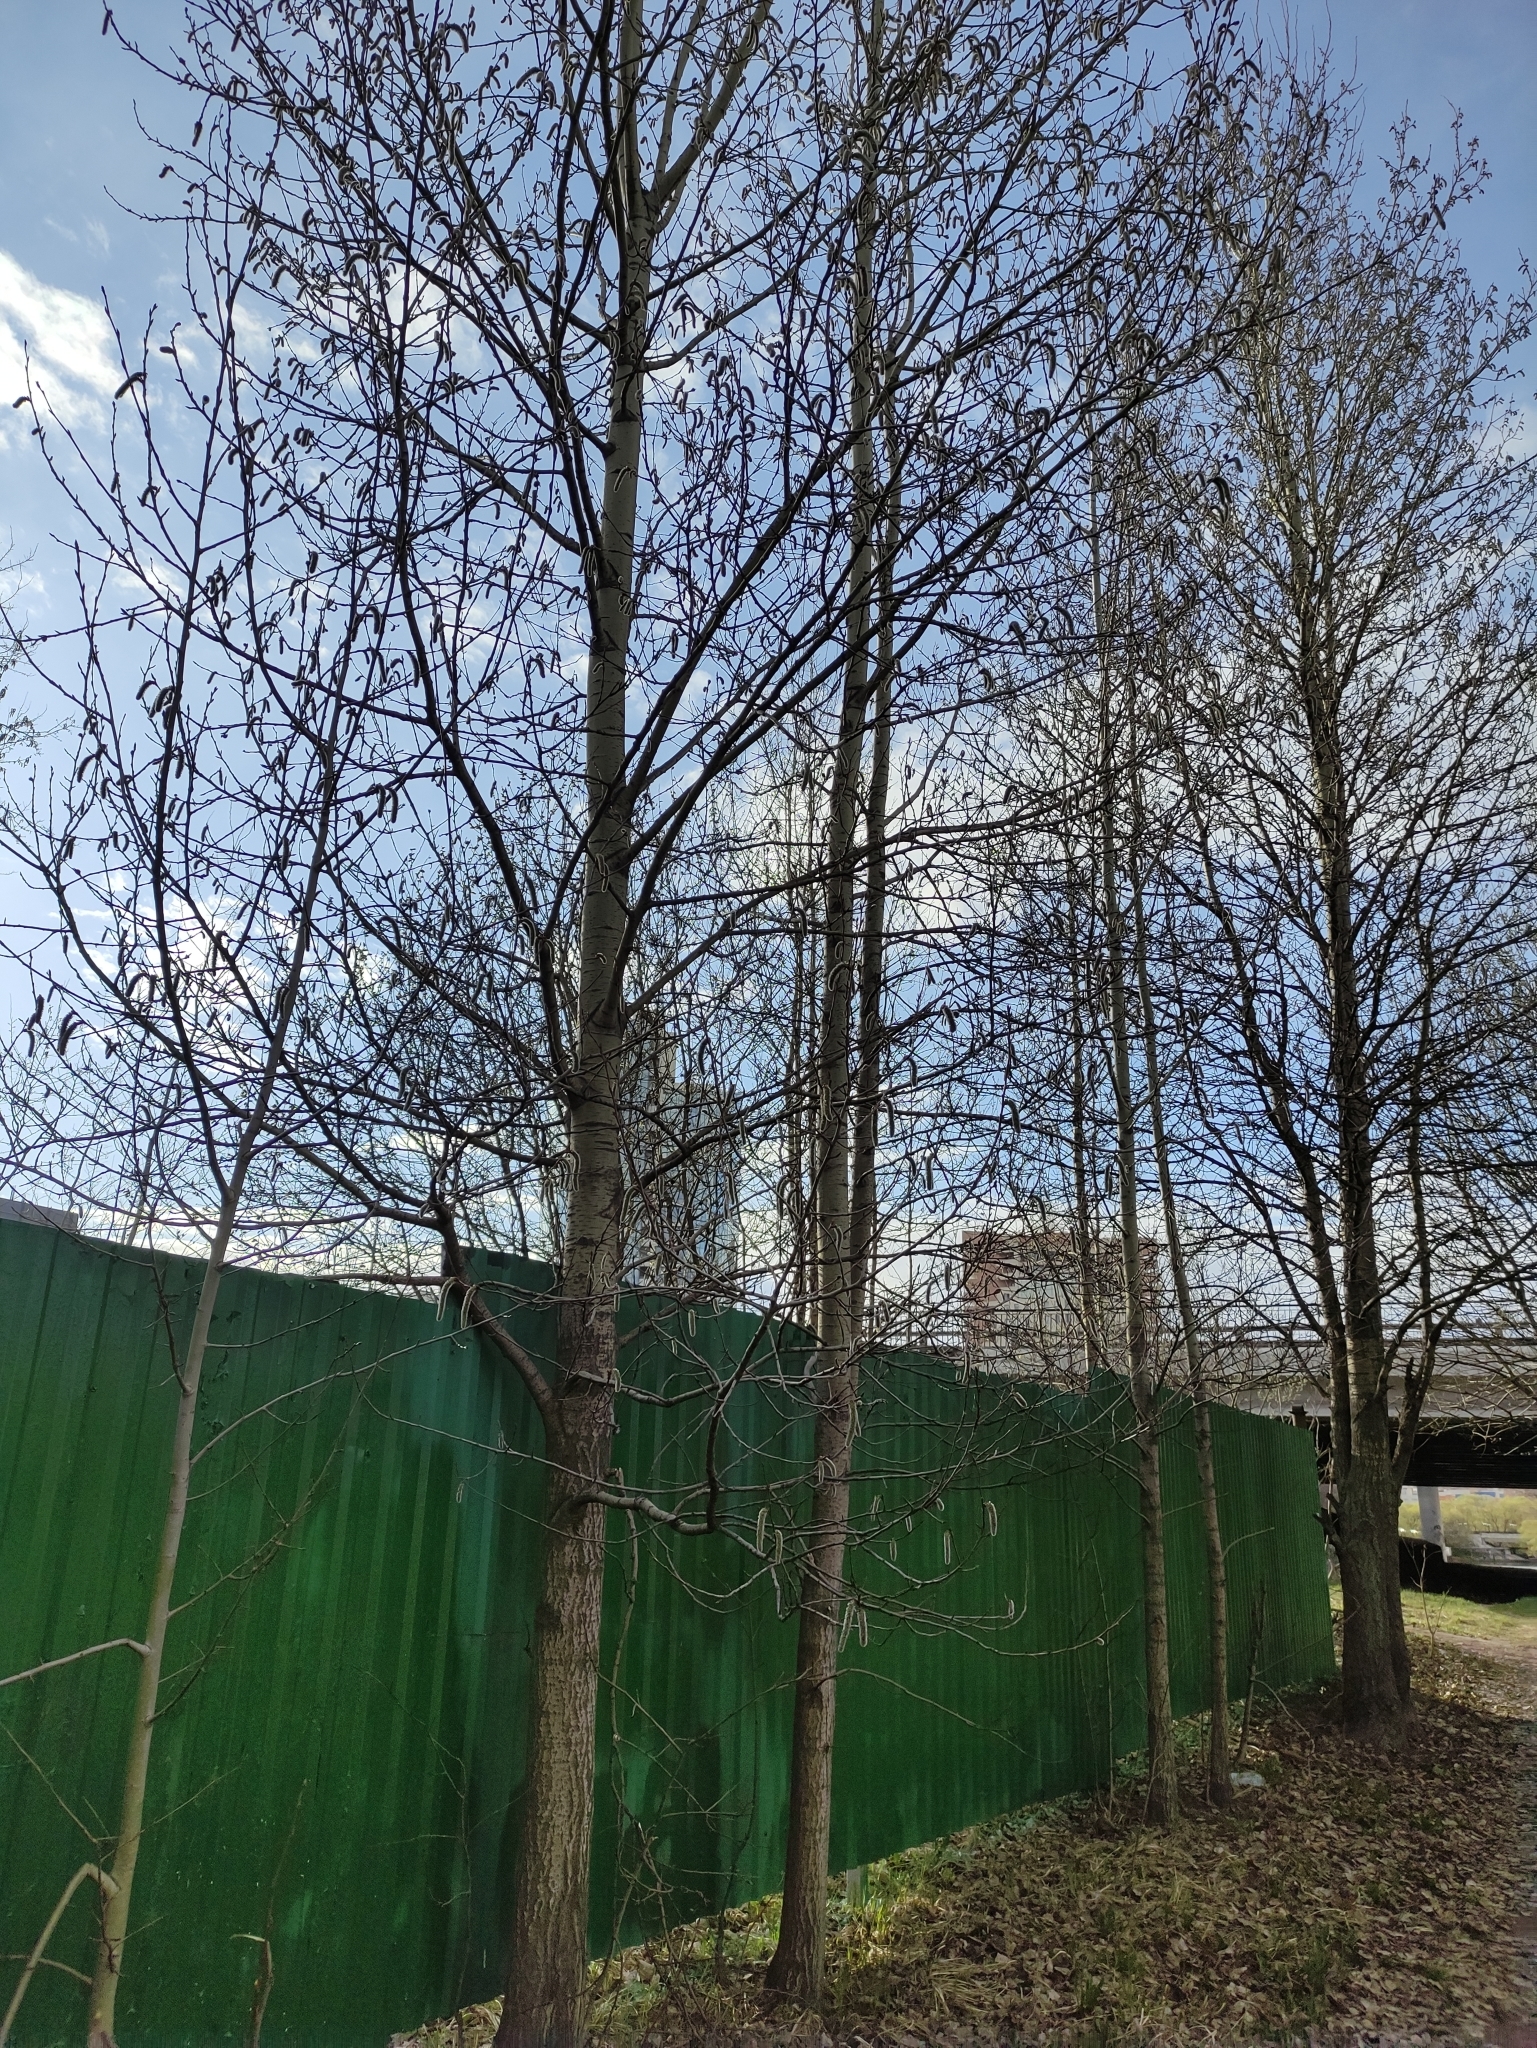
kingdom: Plantae
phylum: Tracheophyta
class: Magnoliopsida
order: Malpighiales
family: Salicaceae
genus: Populus
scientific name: Populus tremula
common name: European aspen
